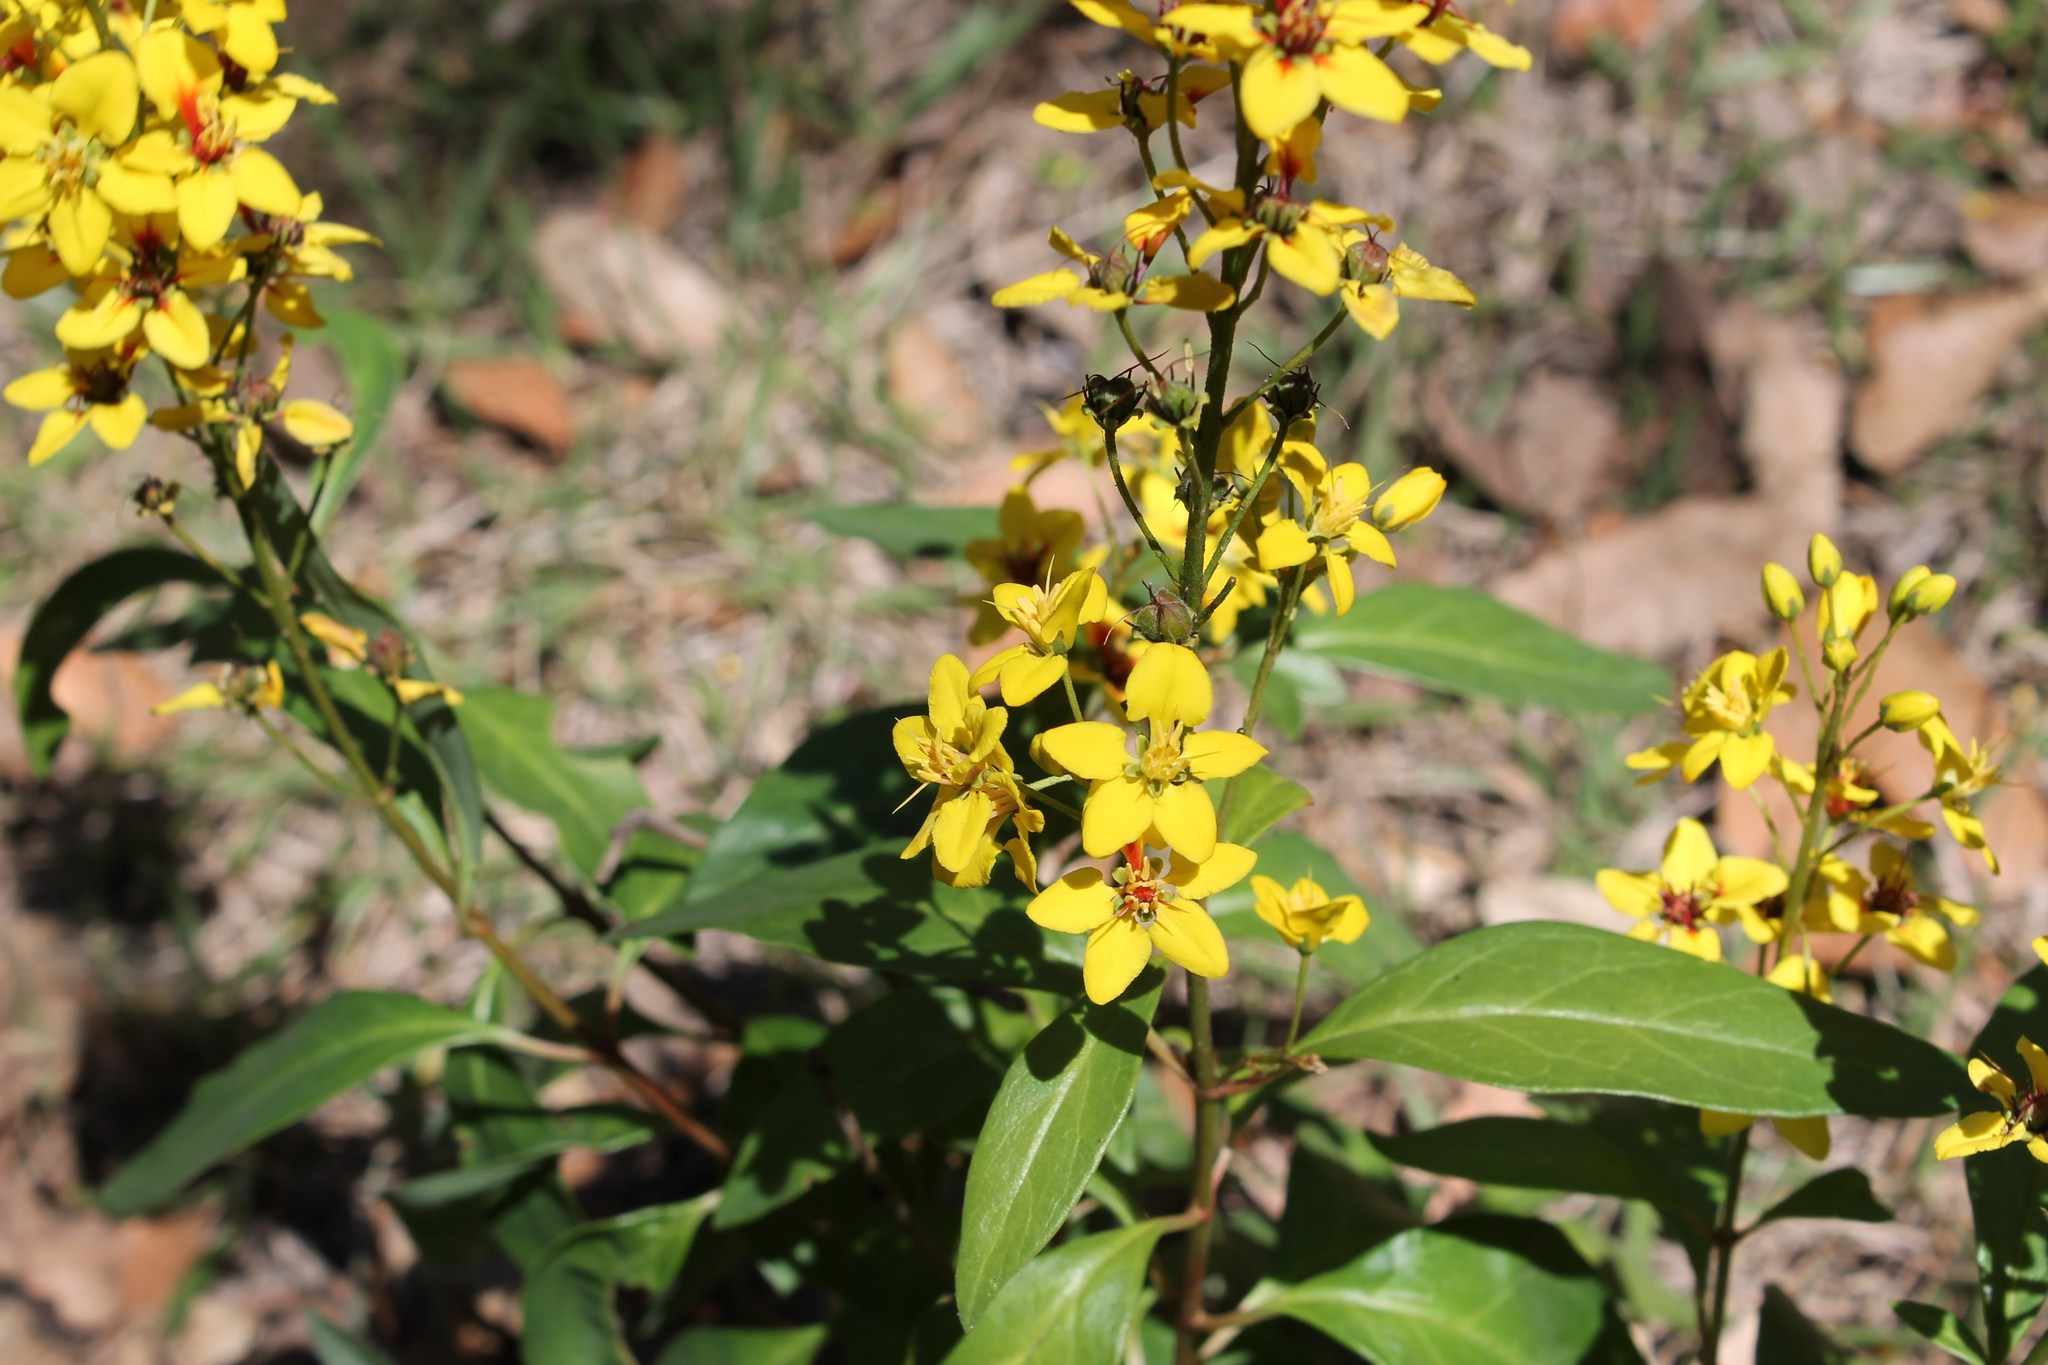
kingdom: Plantae
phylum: Tracheophyta
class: Magnoliopsida
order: Malpighiales
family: Malpighiaceae
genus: Galphimia
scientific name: Galphimia tuberculata
